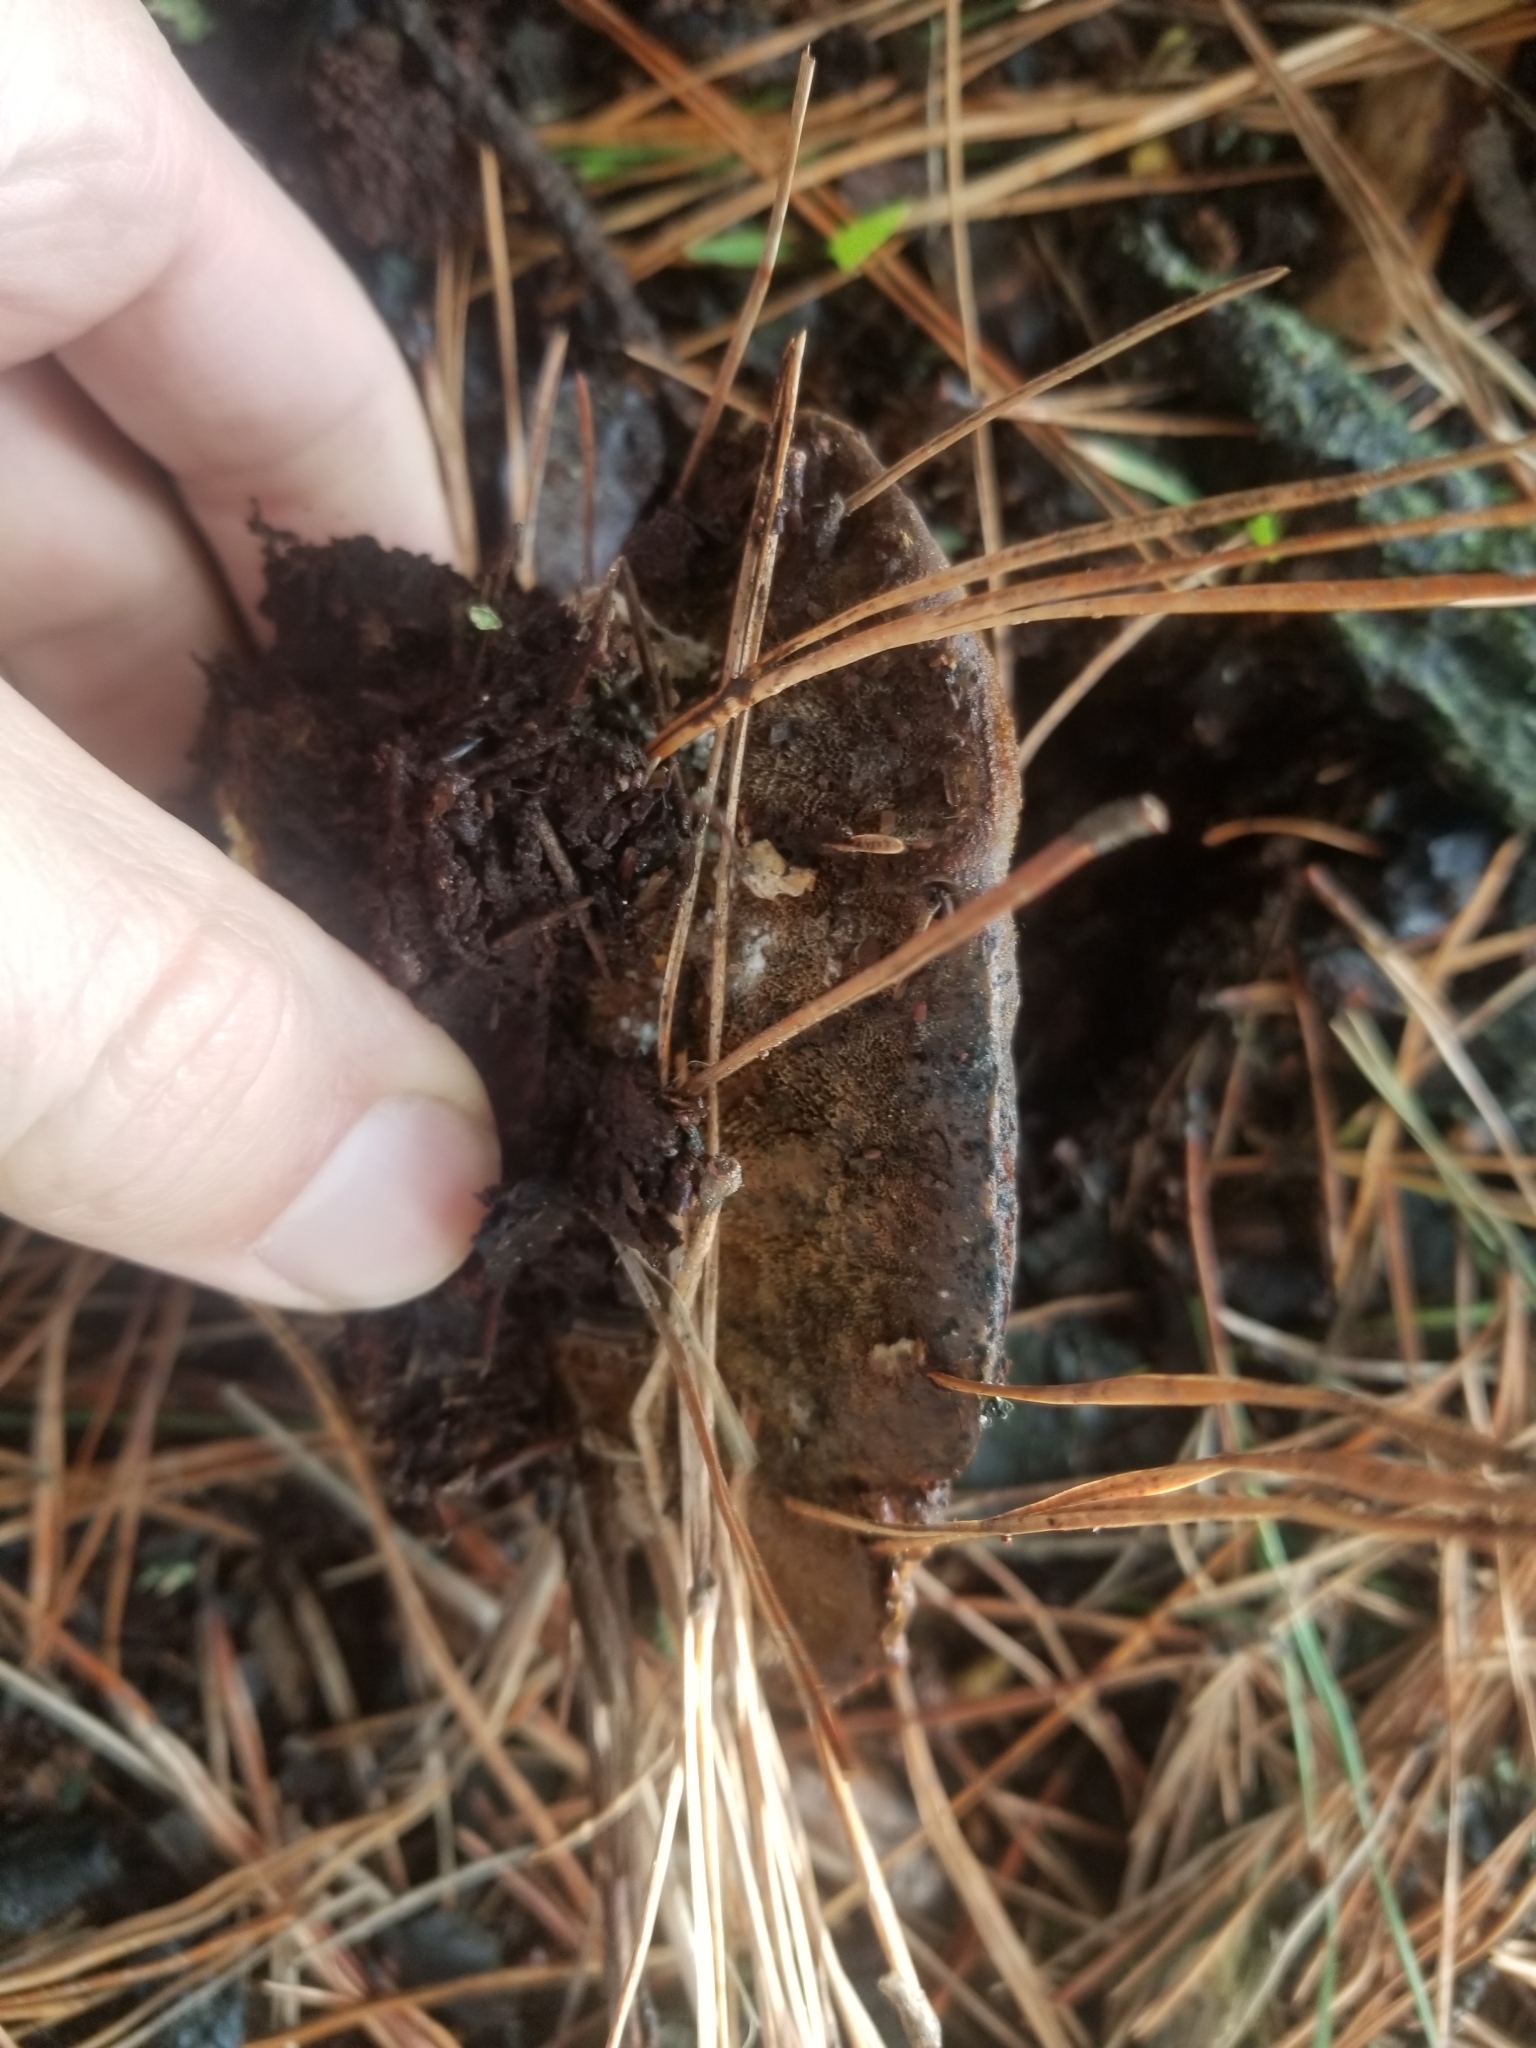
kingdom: Fungi
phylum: Basidiomycota
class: Agaricomycetes
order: Polyporales
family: Laetiporaceae
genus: Phaeolus
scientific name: Phaeolus schweinitzii
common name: Dyer's mazegill
